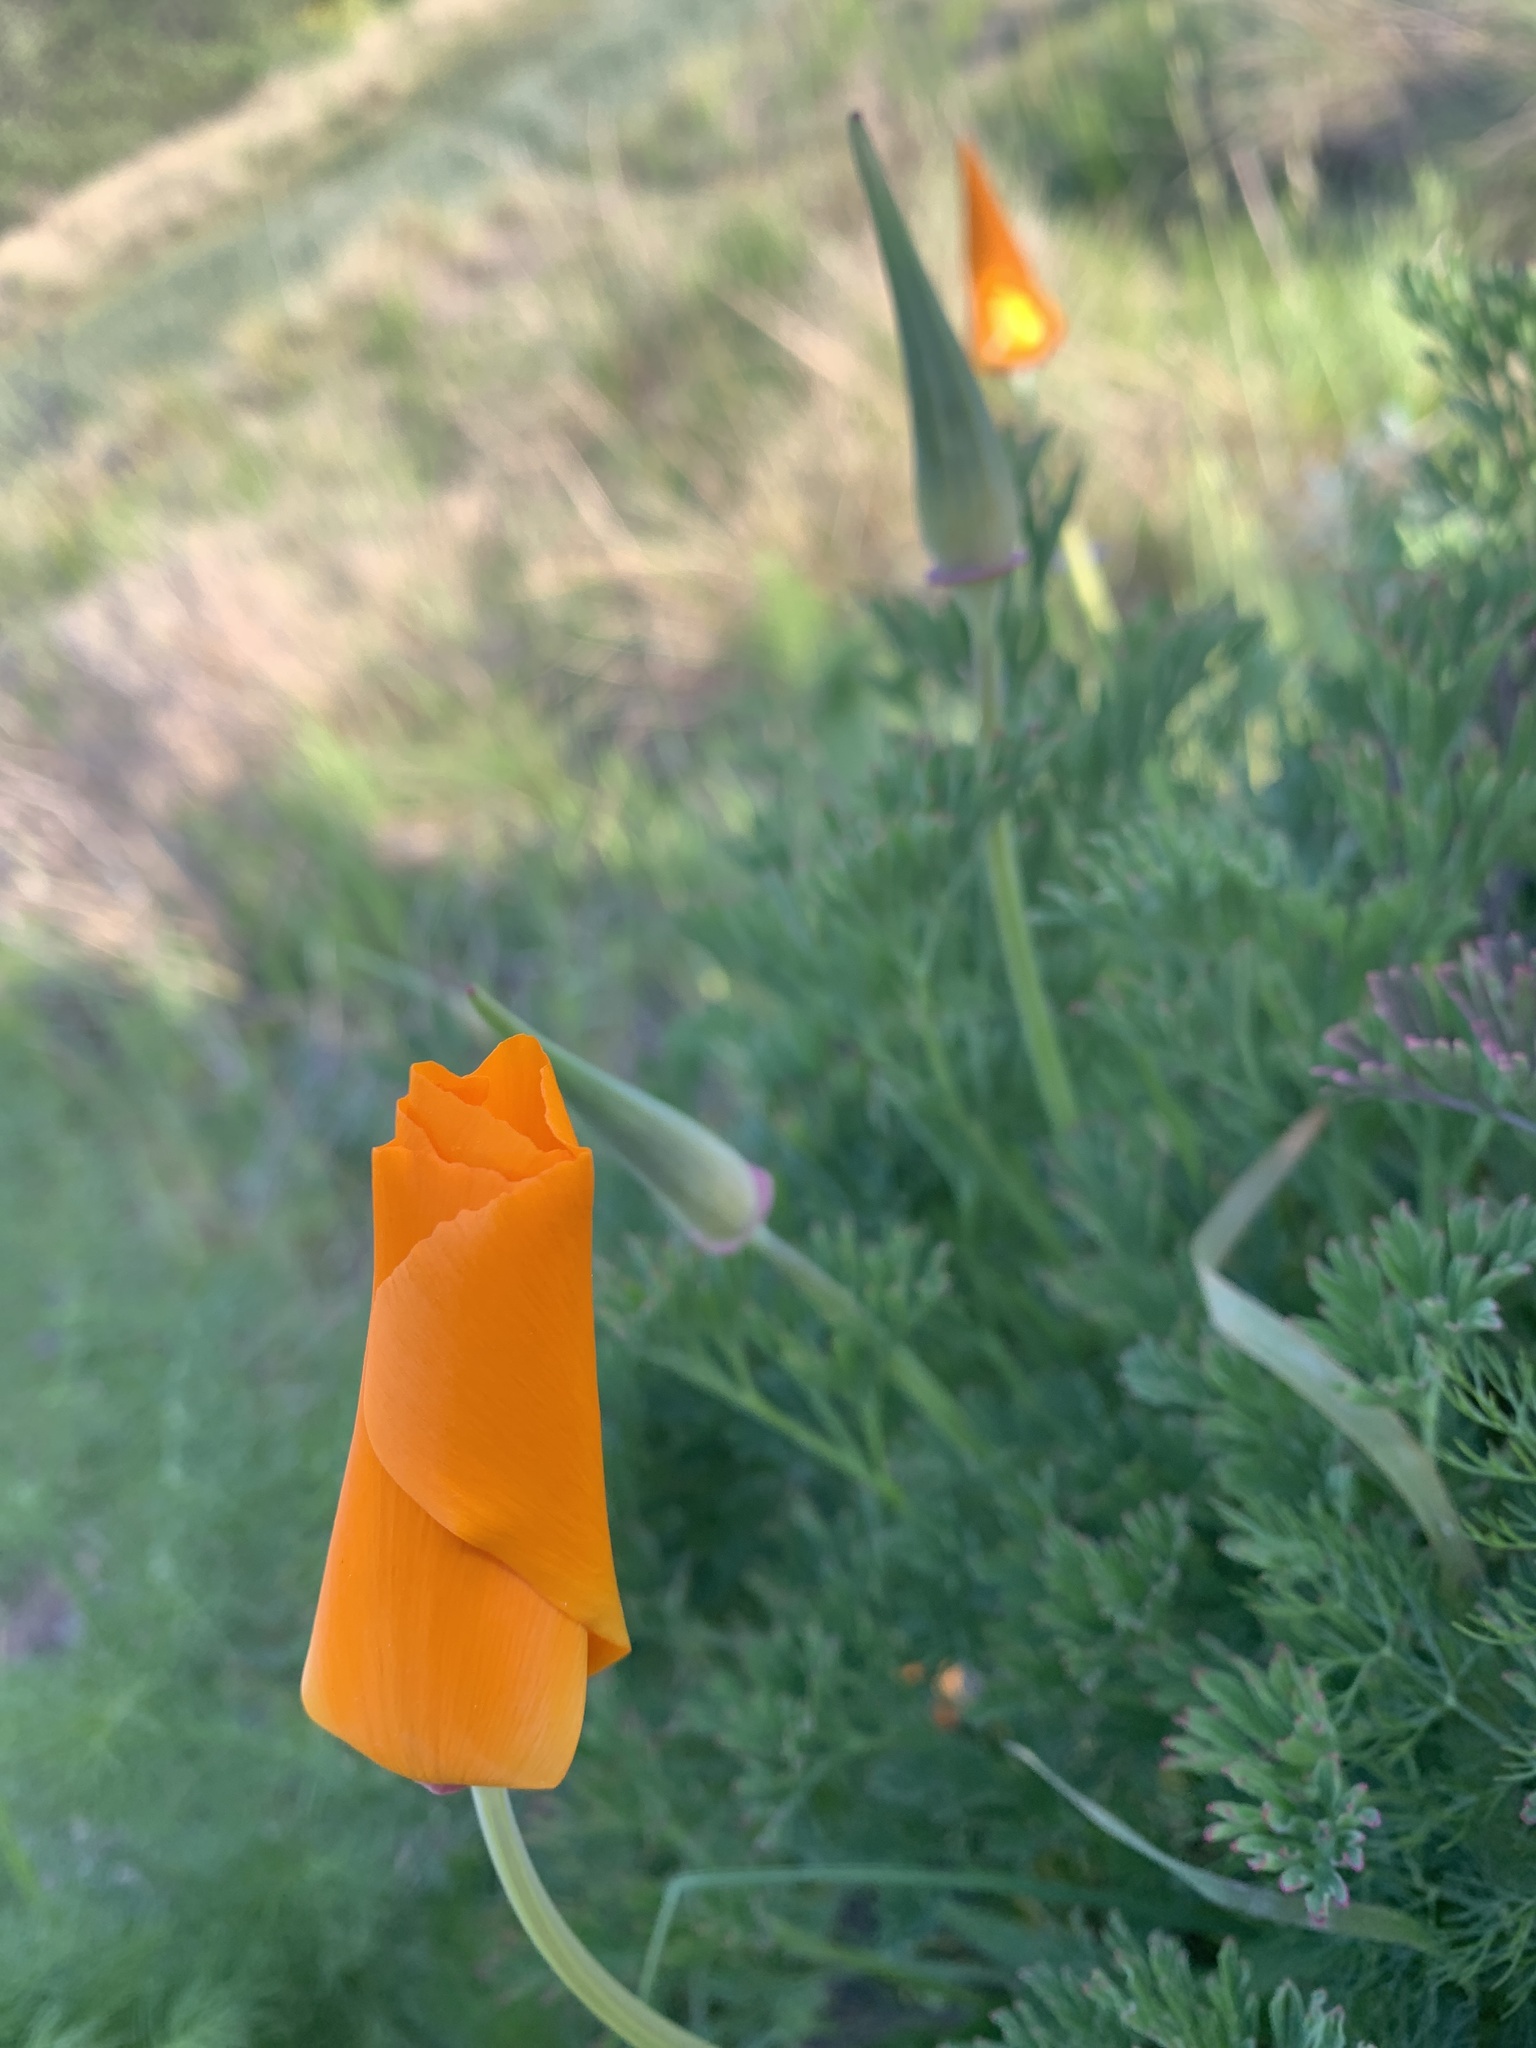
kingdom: Plantae
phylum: Tracheophyta
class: Magnoliopsida
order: Ranunculales
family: Papaveraceae
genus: Eschscholzia
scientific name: Eschscholzia californica
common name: California poppy
